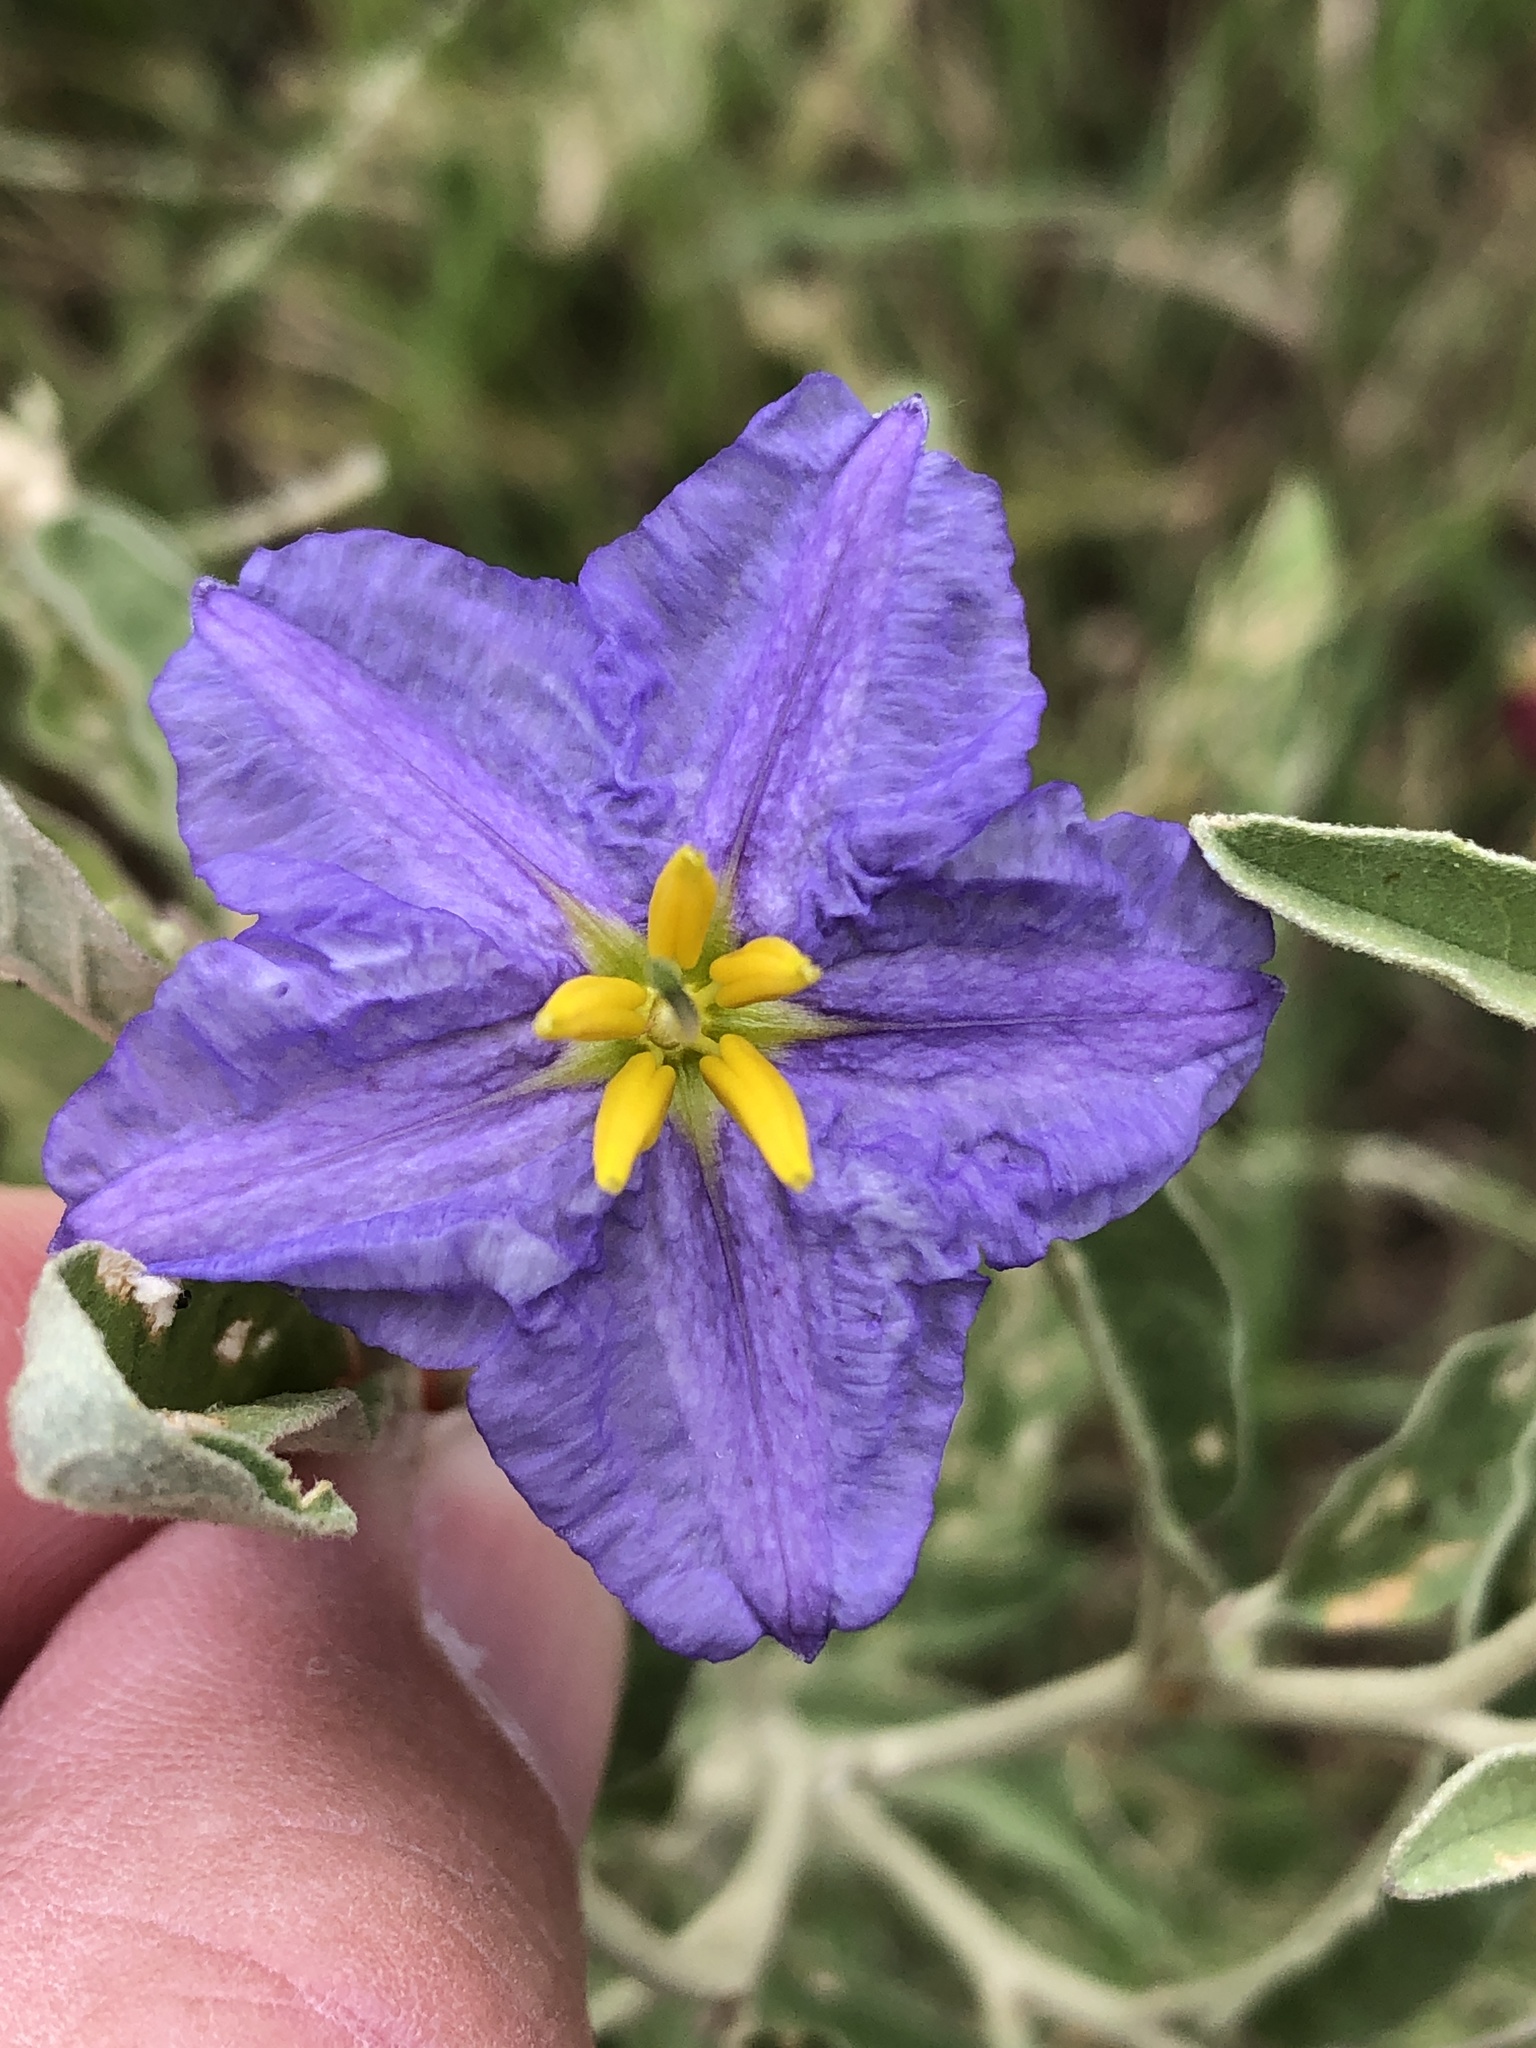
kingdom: Plantae
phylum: Tracheophyta
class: Magnoliopsida
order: Solanales
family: Solanaceae
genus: Solanum
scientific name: Solanum elaeagnifolium
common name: Silverleaf nightshade
